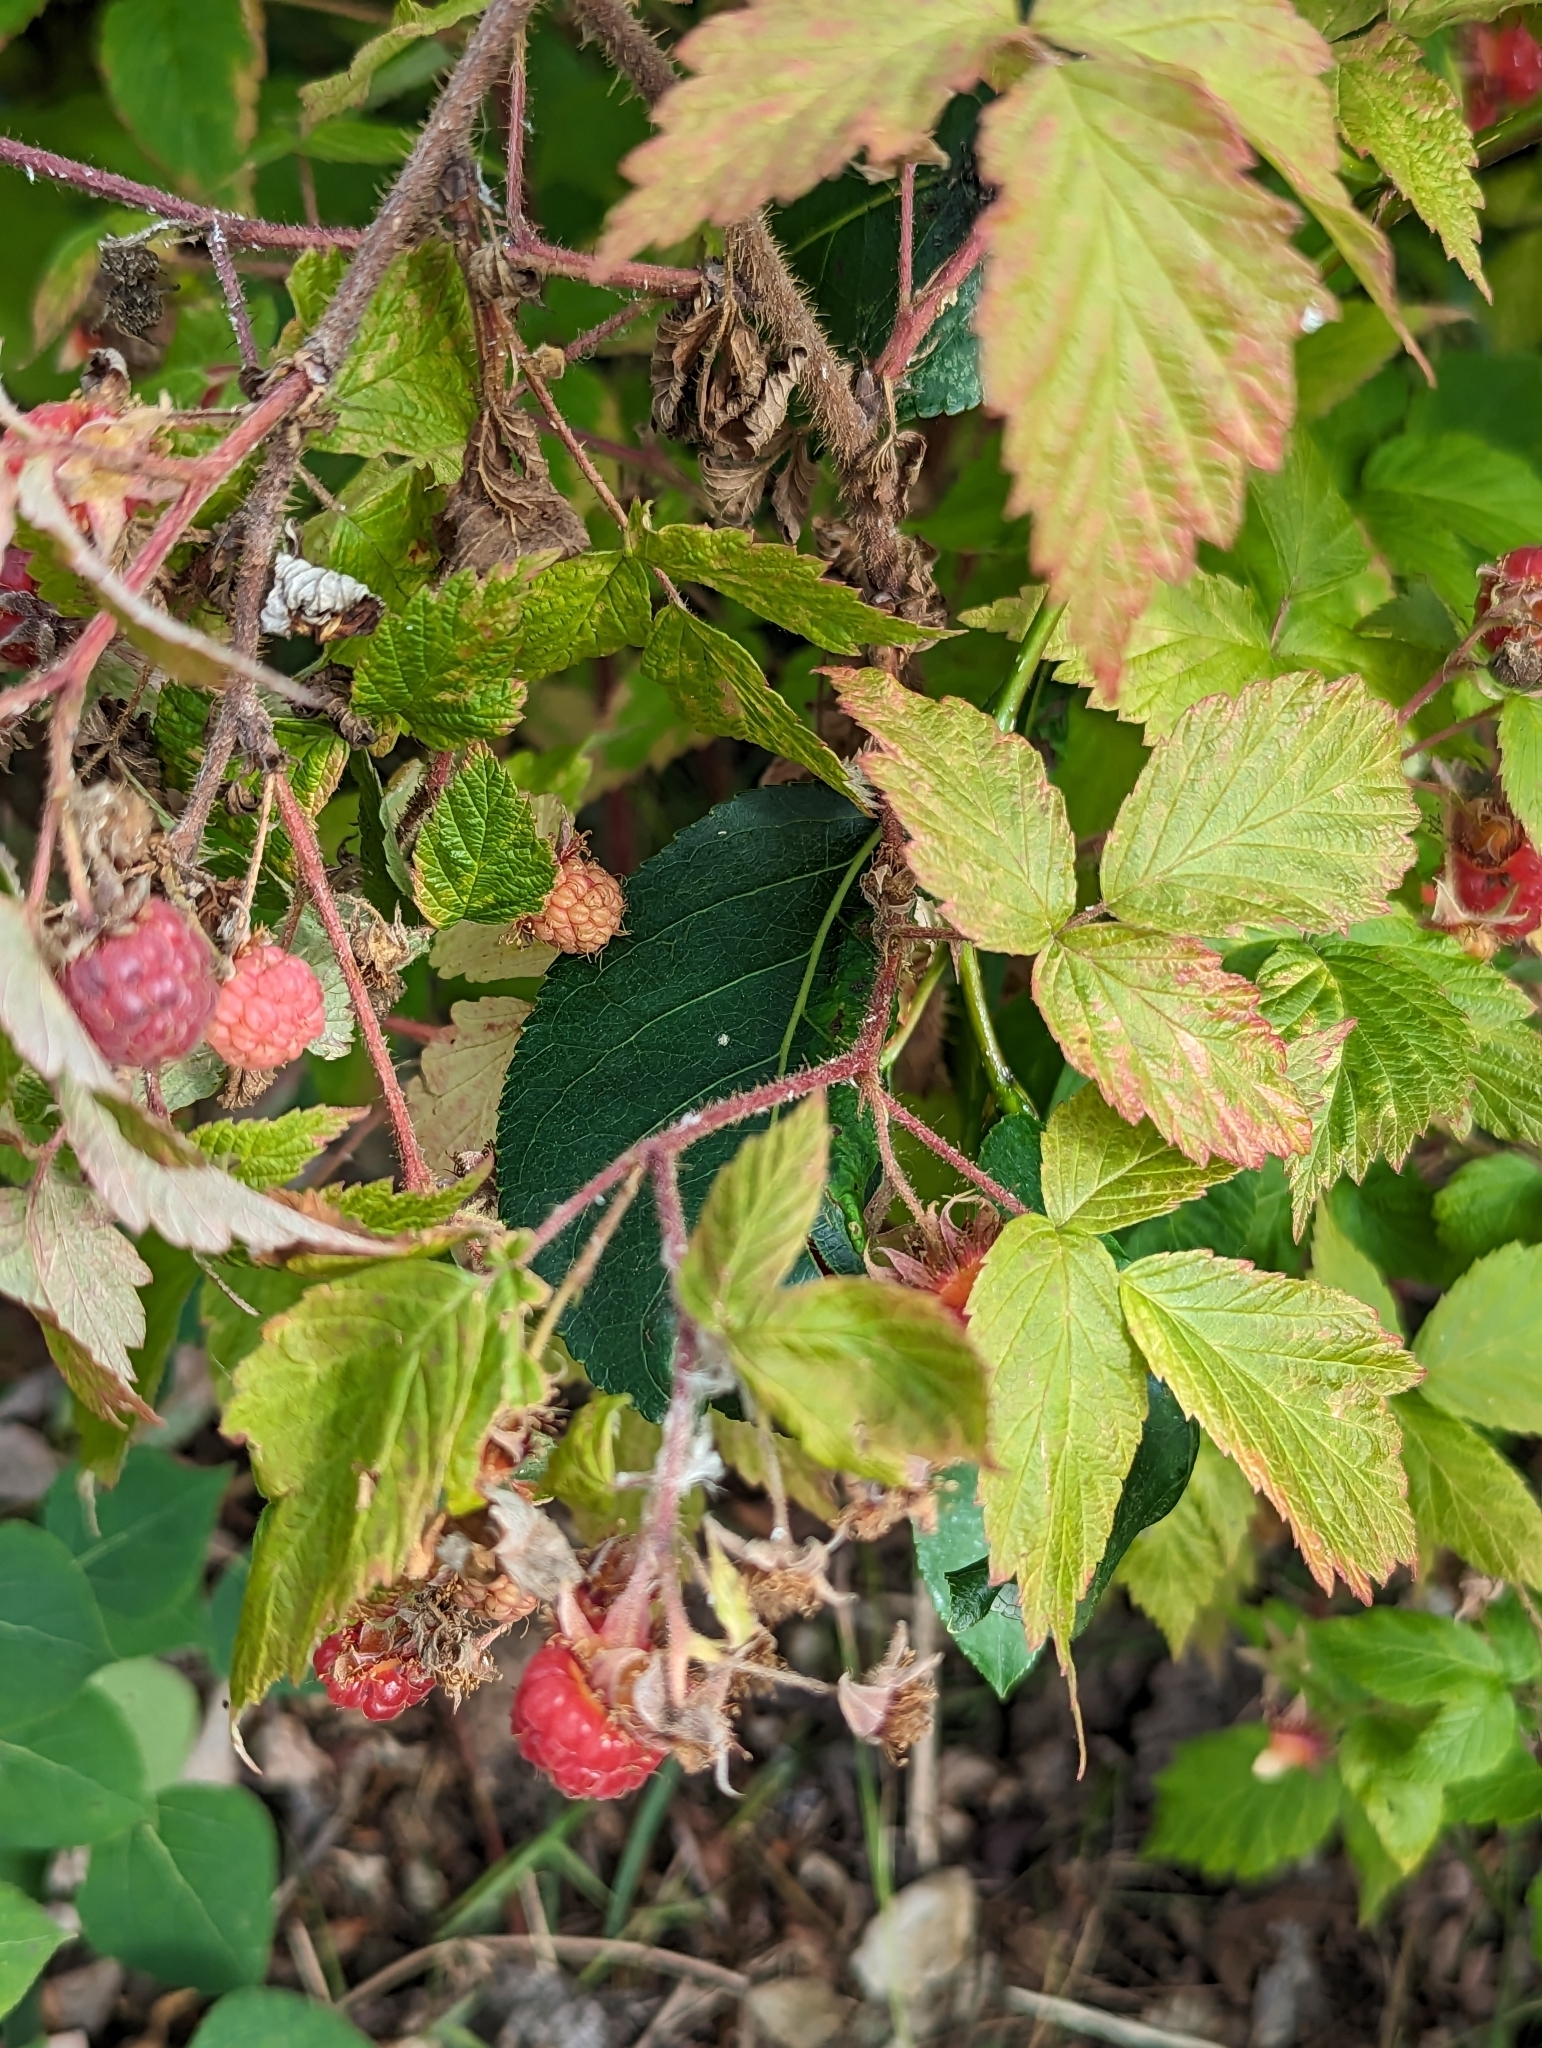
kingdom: Plantae
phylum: Tracheophyta
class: Magnoliopsida
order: Rosales
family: Rosaceae
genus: Rubus
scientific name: Rubus idaeus
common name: Raspberry
